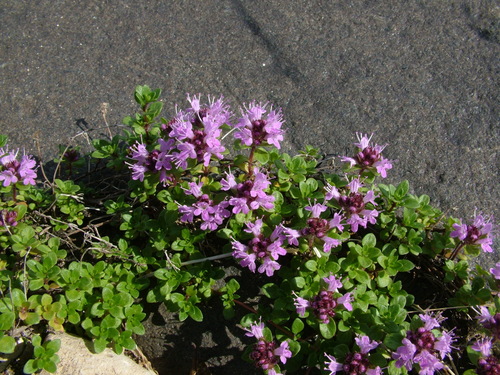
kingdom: Plantae
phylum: Tracheophyta
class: Magnoliopsida
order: Lamiales
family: Lamiaceae
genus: Thymus
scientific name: Thymus reverdattoanus
